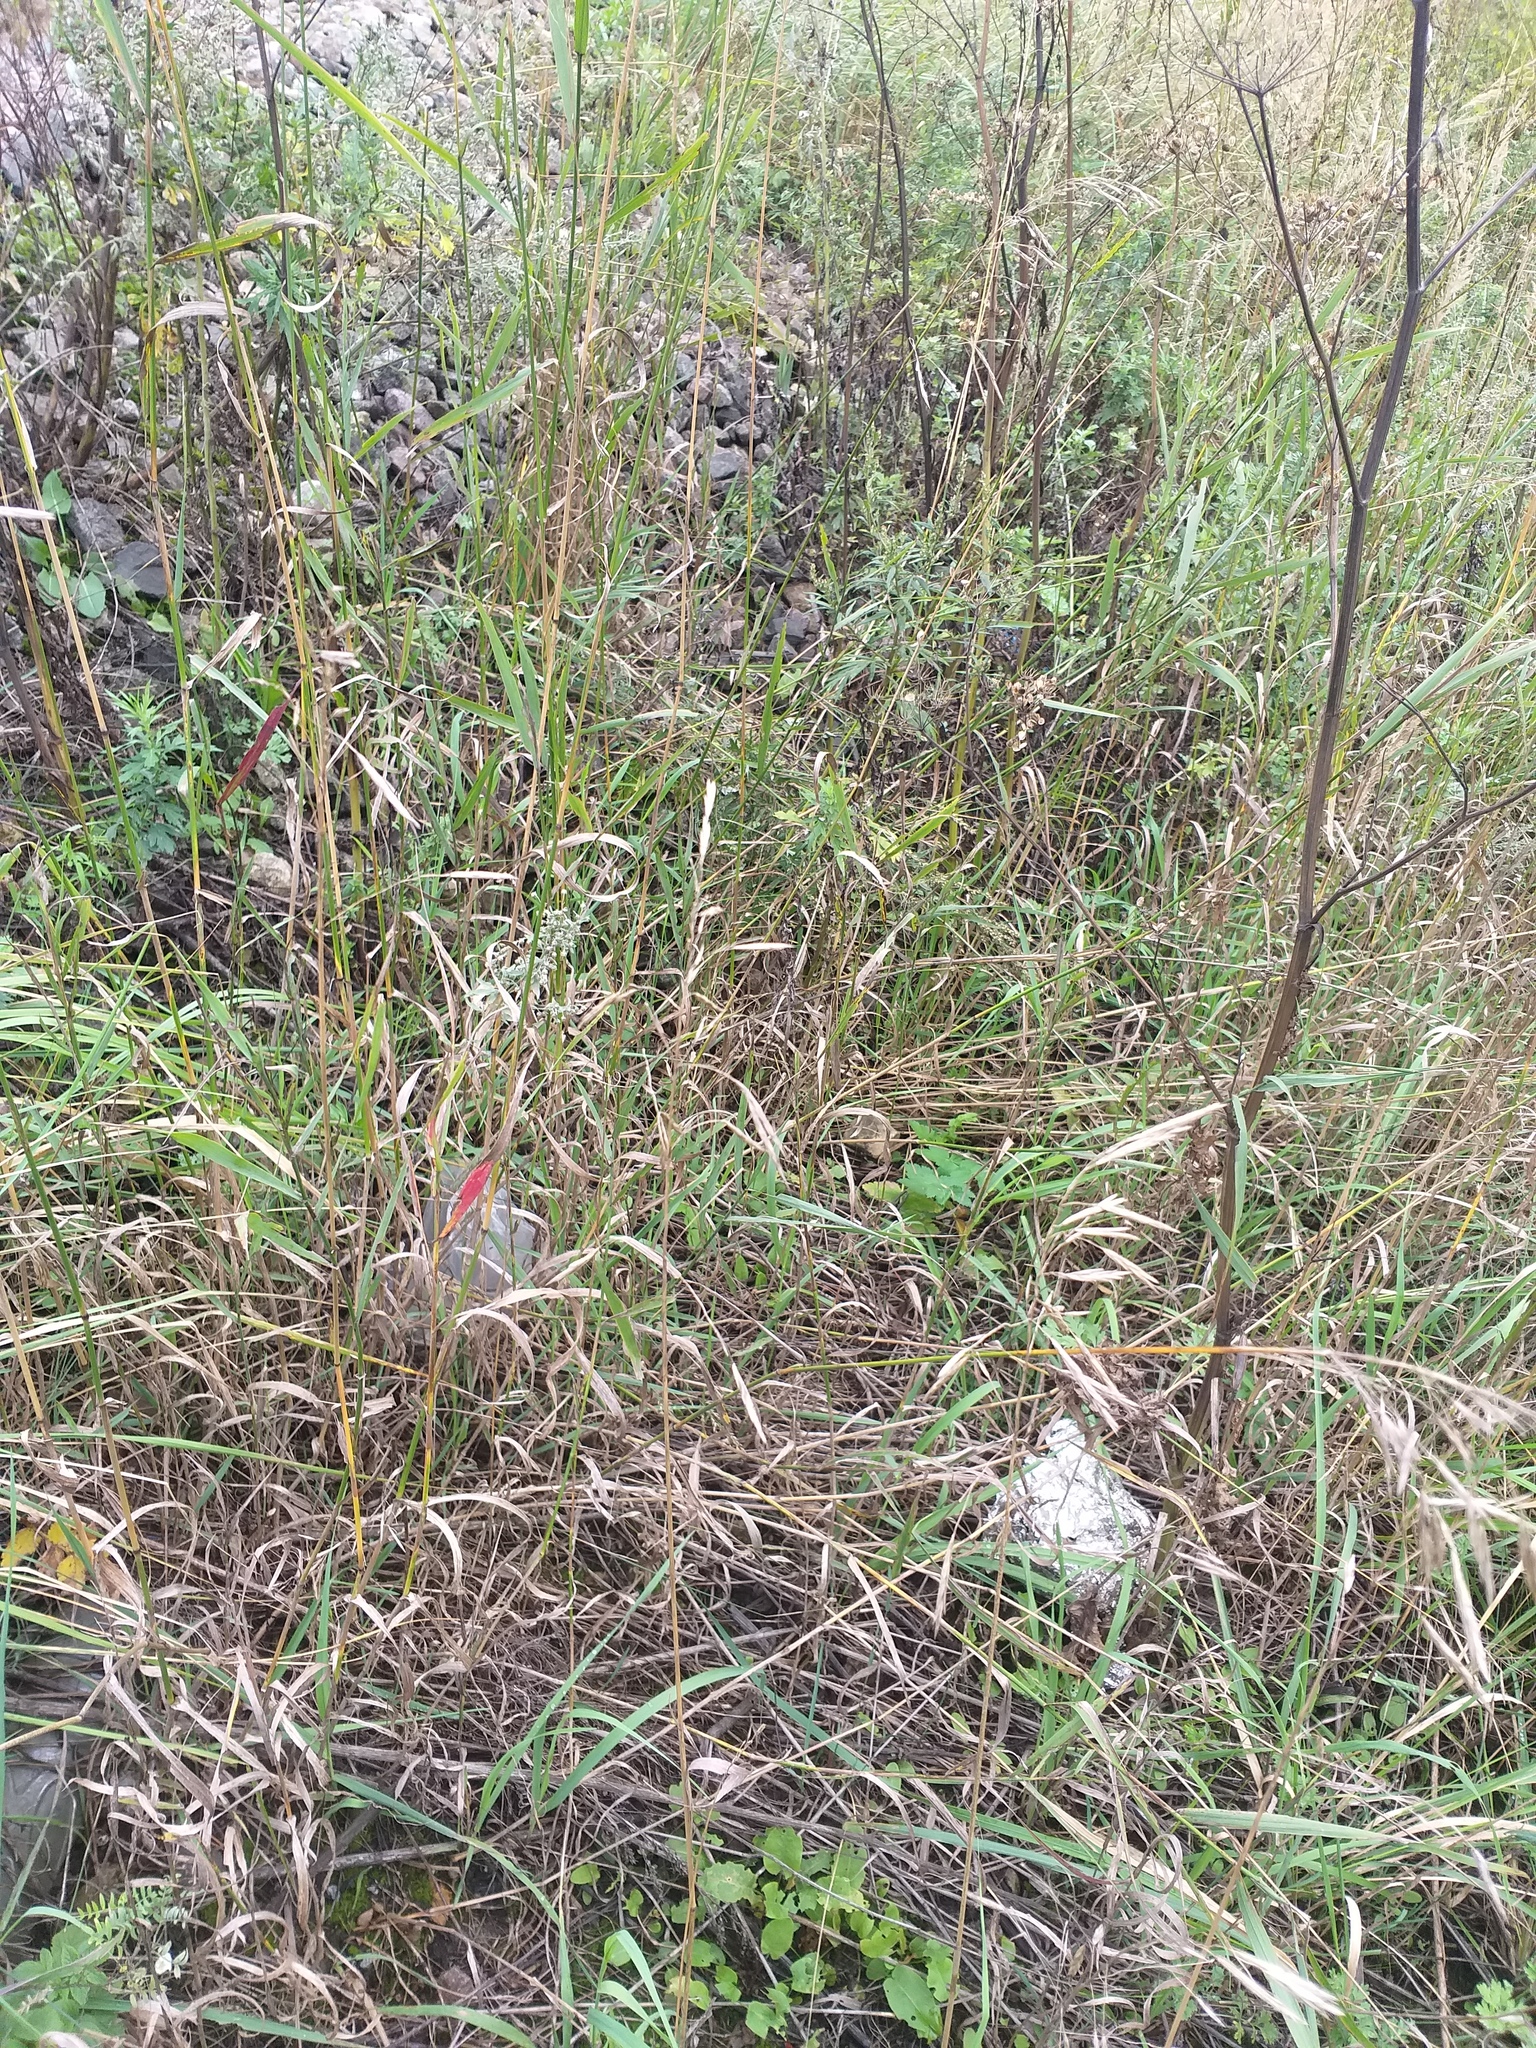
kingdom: Plantae
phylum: Tracheophyta
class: Liliopsida
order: Poales
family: Poaceae
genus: Bromus
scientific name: Bromus inermis
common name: Smooth brome
